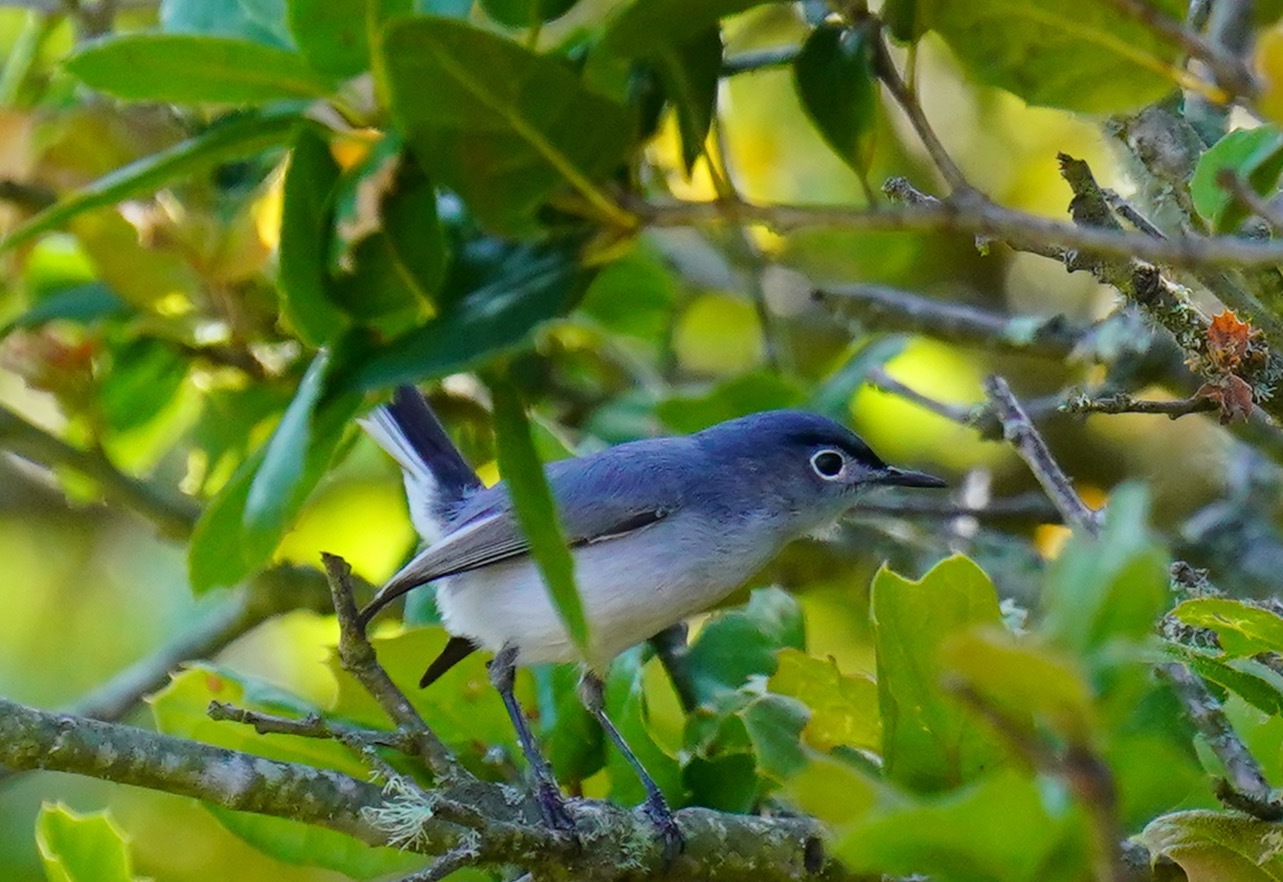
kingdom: Animalia
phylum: Chordata
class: Aves
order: Passeriformes
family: Polioptilidae
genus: Polioptila
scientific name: Polioptila caerulea
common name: Blue-gray gnatcatcher
